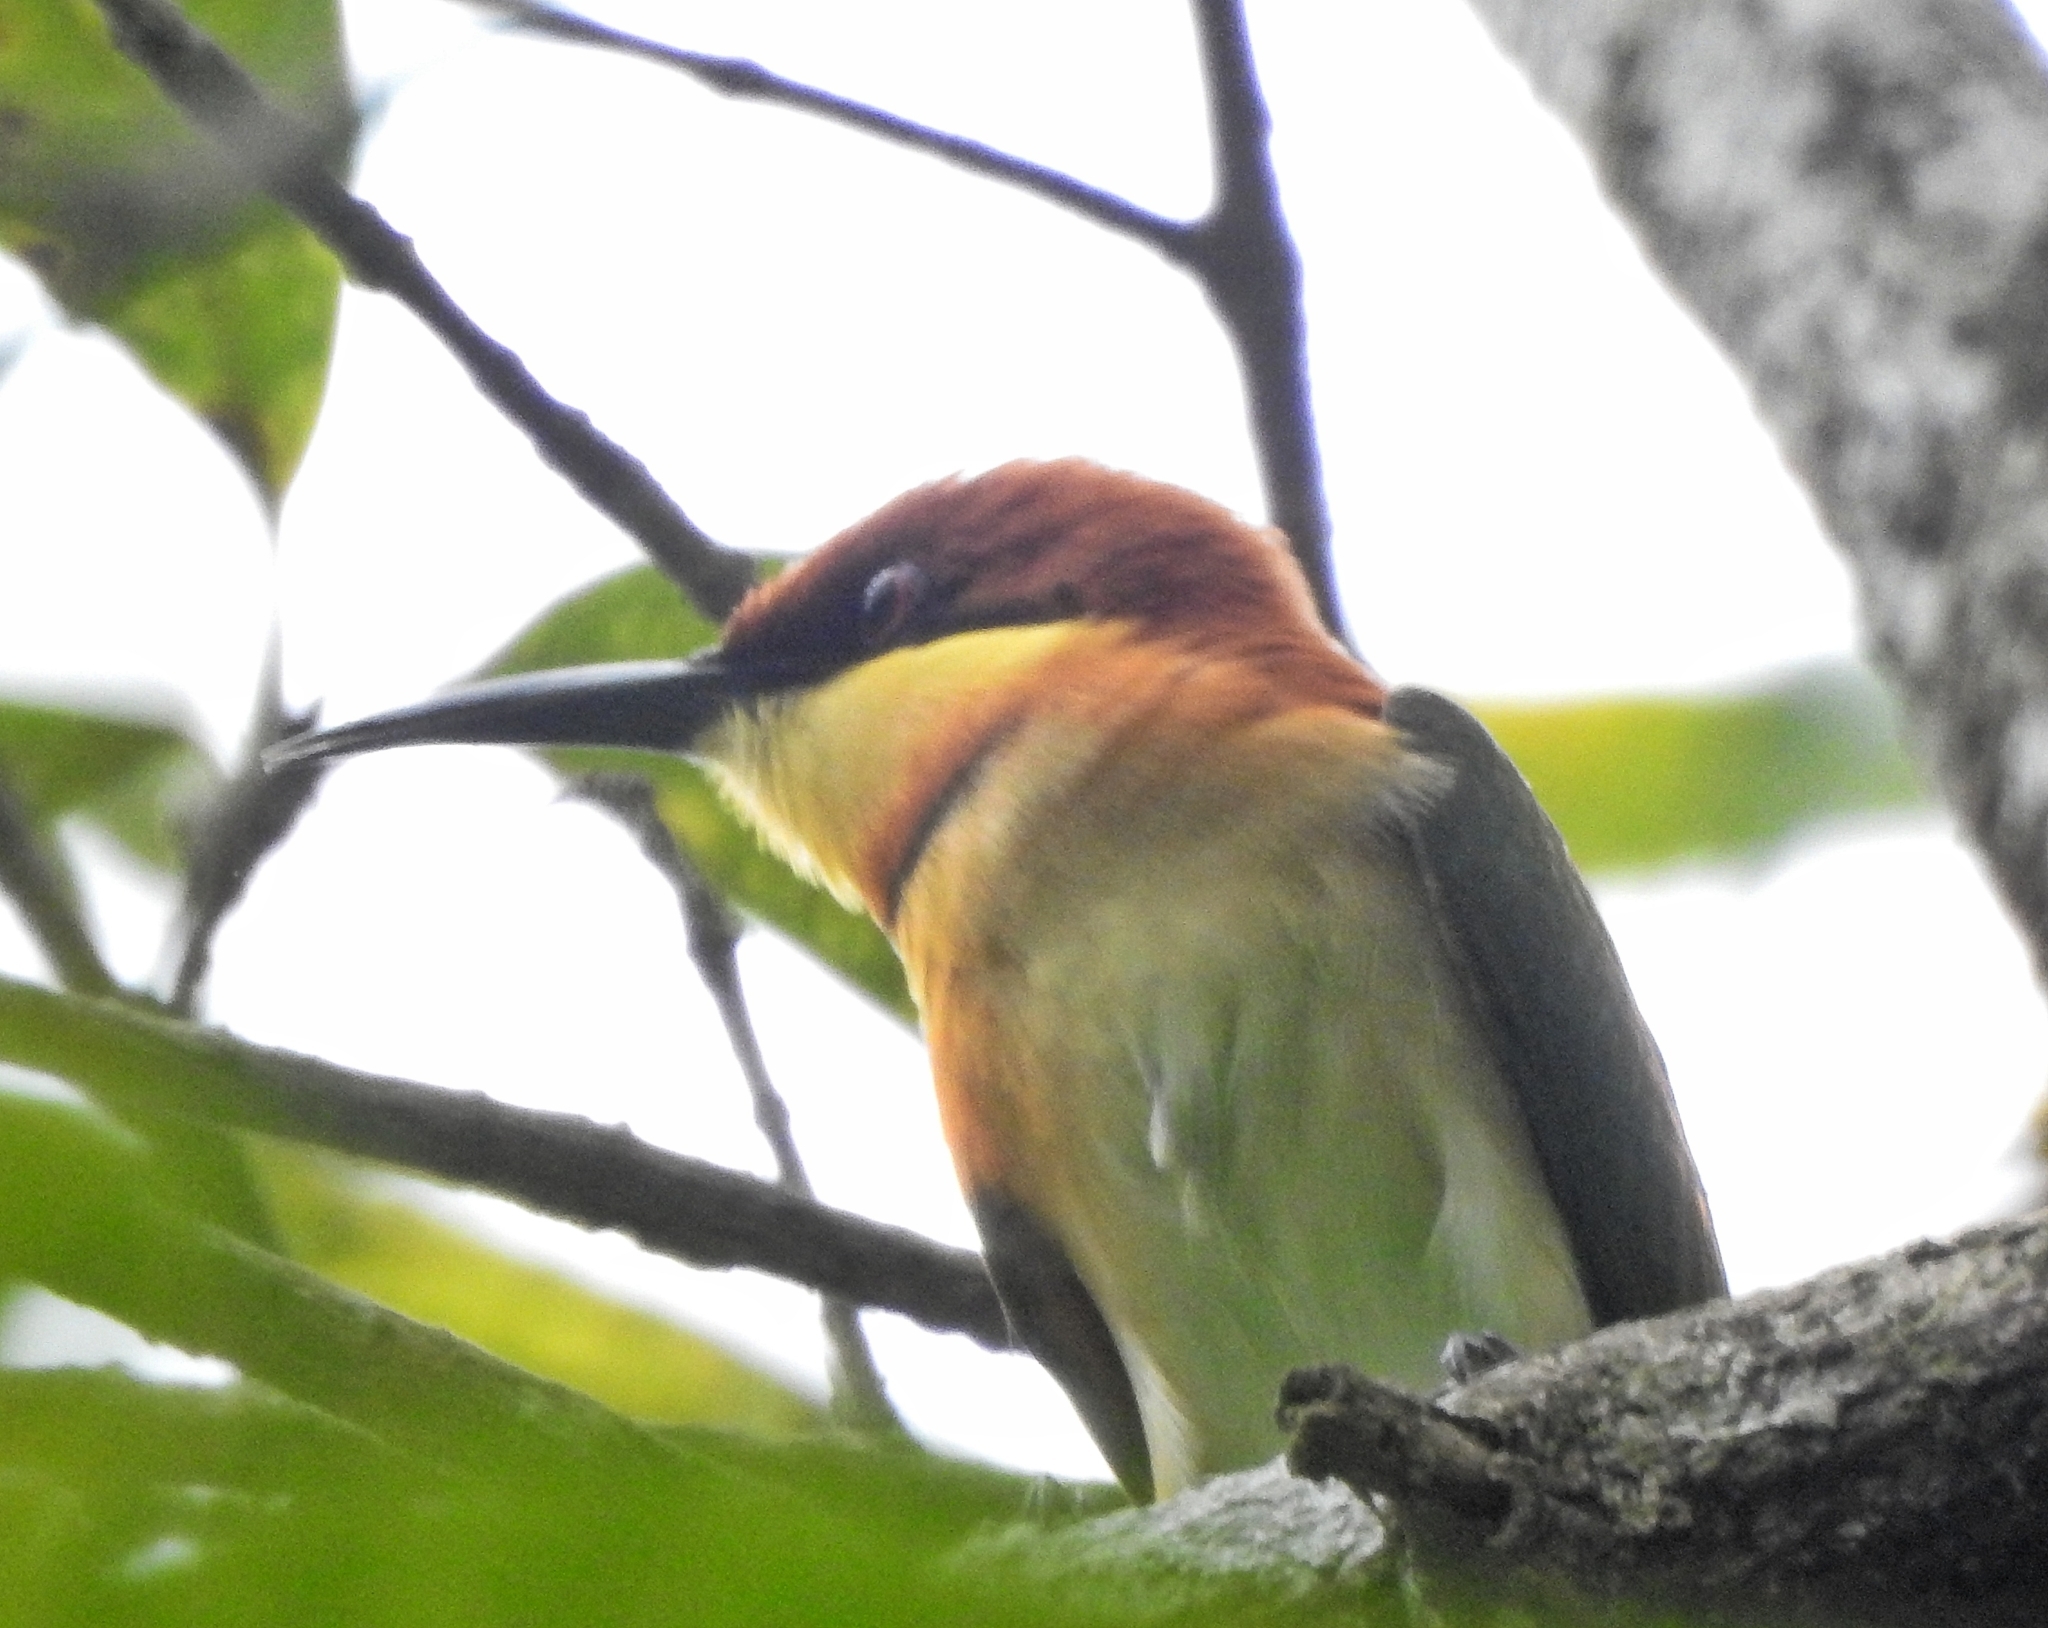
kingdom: Animalia
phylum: Chordata
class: Aves
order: Coraciiformes
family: Meropidae
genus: Merops
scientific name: Merops leschenaulti
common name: Chestnut-headed bee-eater
